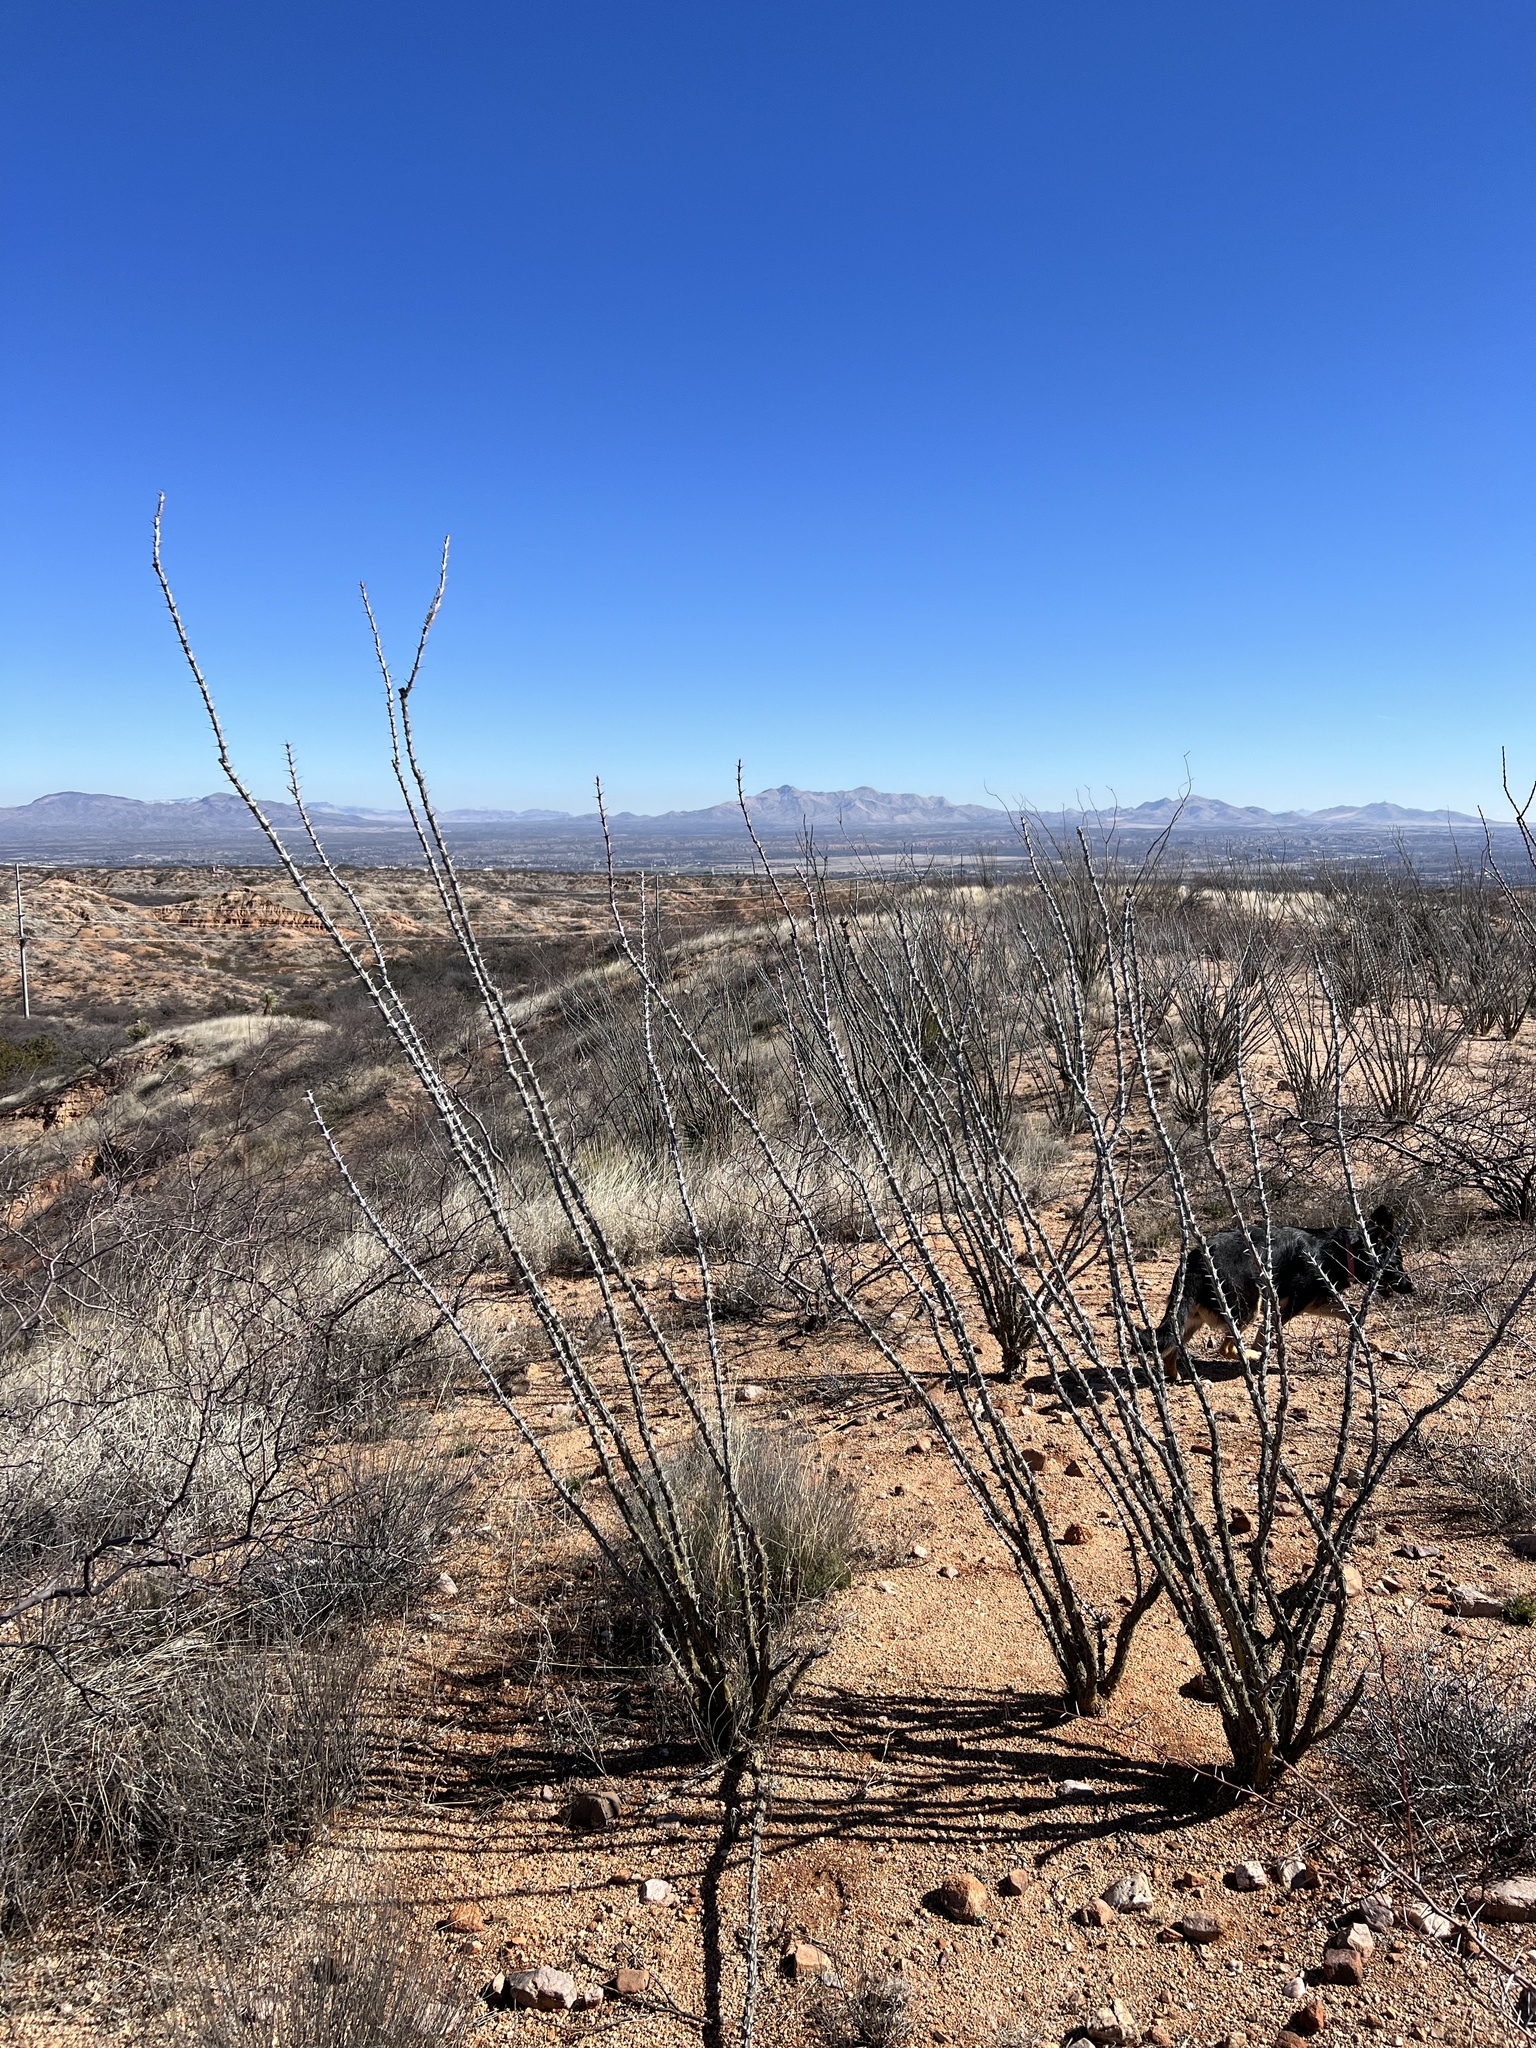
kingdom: Plantae
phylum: Tracheophyta
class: Magnoliopsida
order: Ericales
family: Fouquieriaceae
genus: Fouquieria
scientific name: Fouquieria splendens
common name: Vine-cactus
